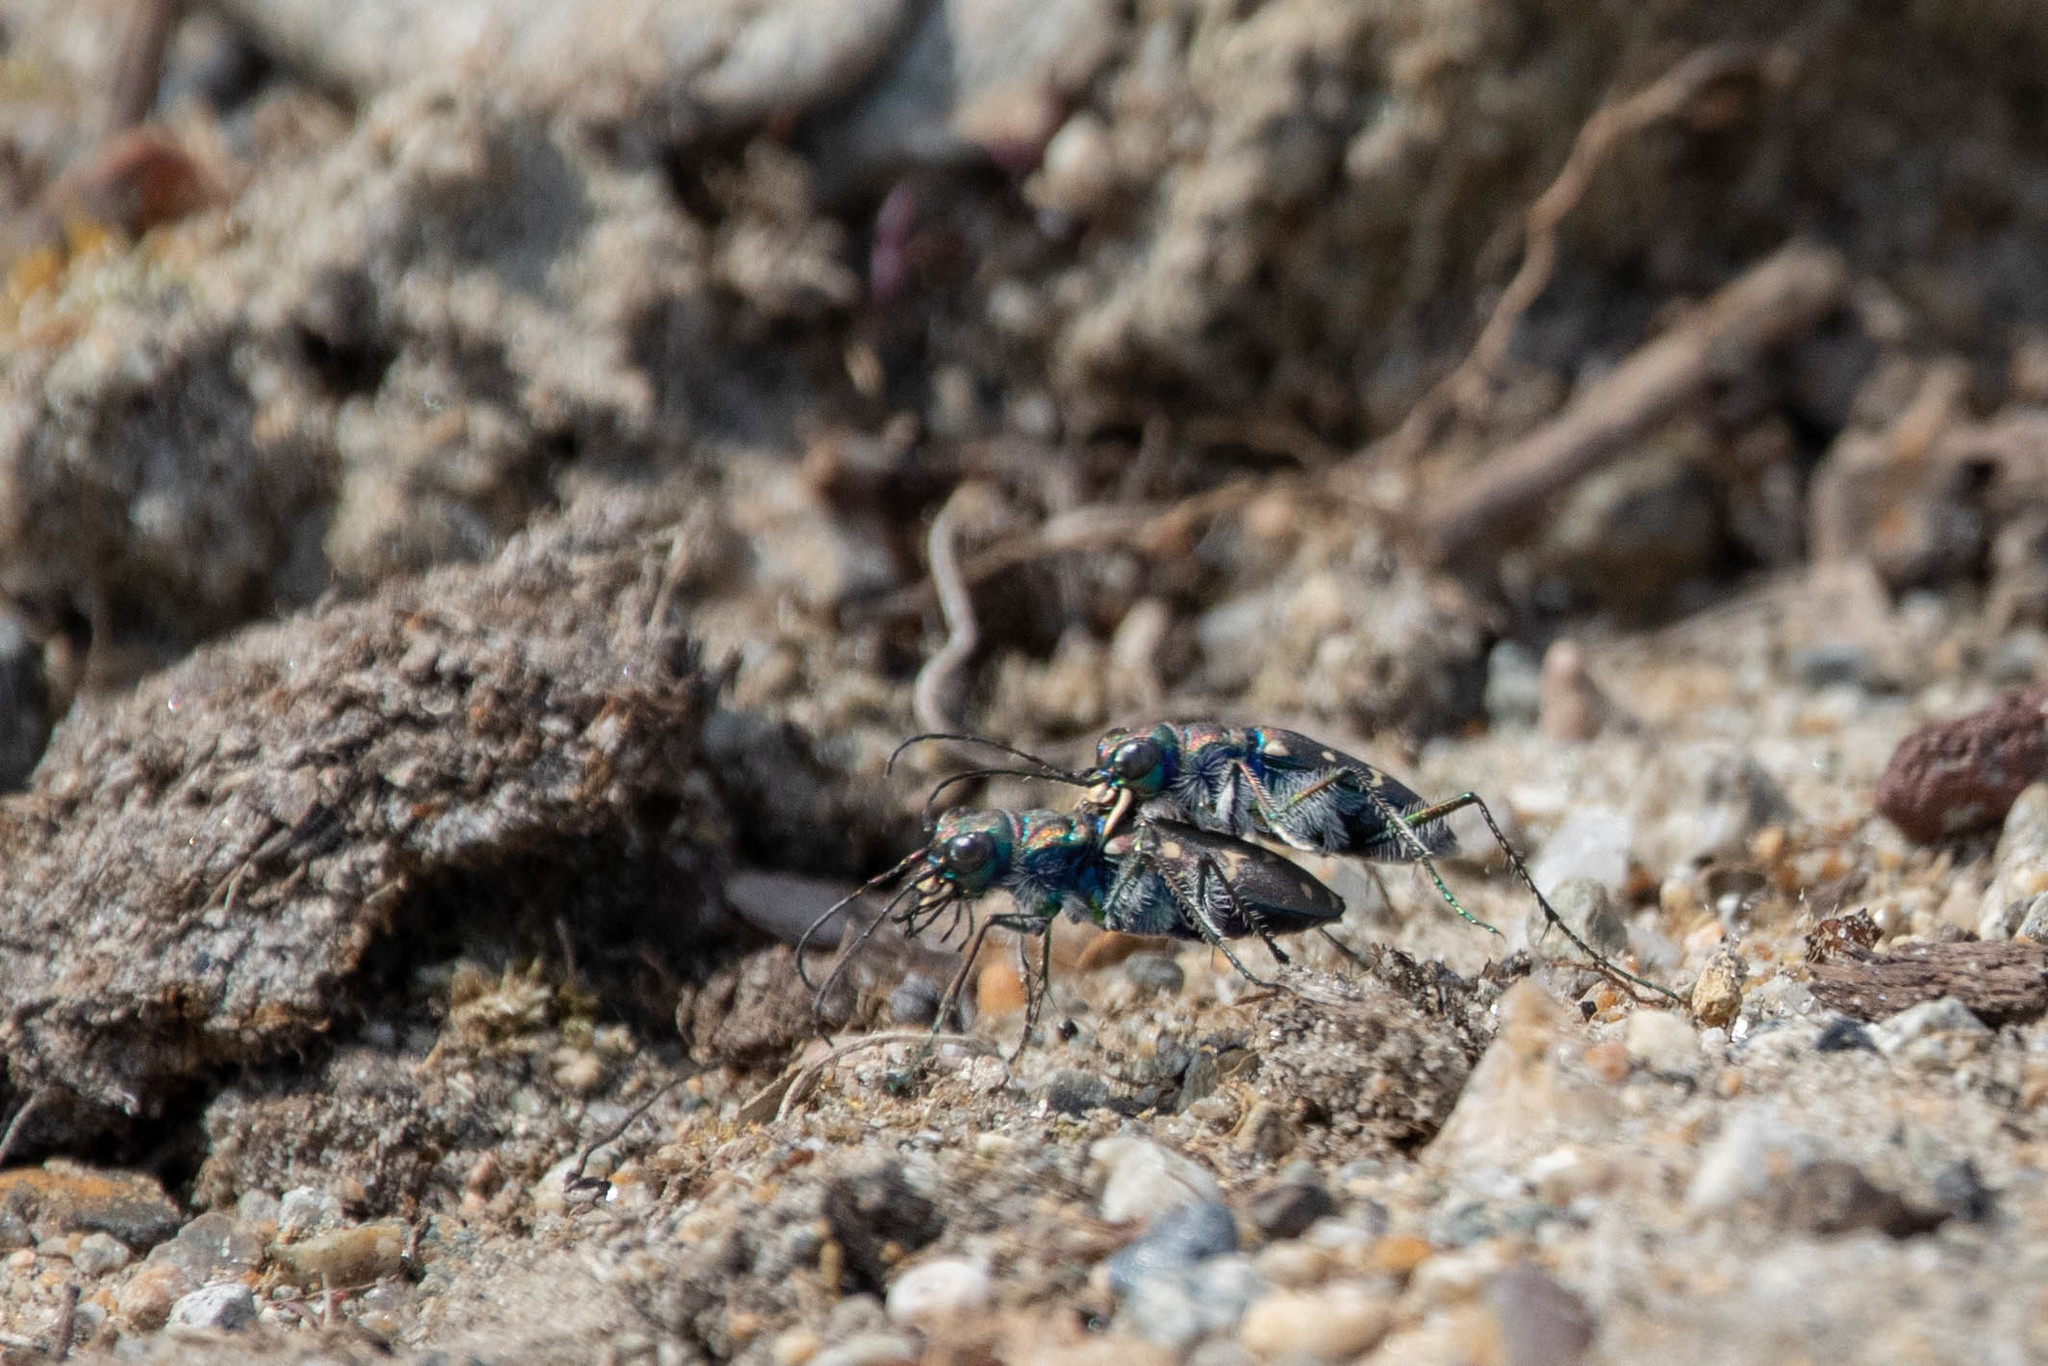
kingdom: Animalia
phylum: Arthropoda
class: Insecta
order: Coleoptera
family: Carabidae
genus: Cicindela
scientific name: Cicindela oregona
